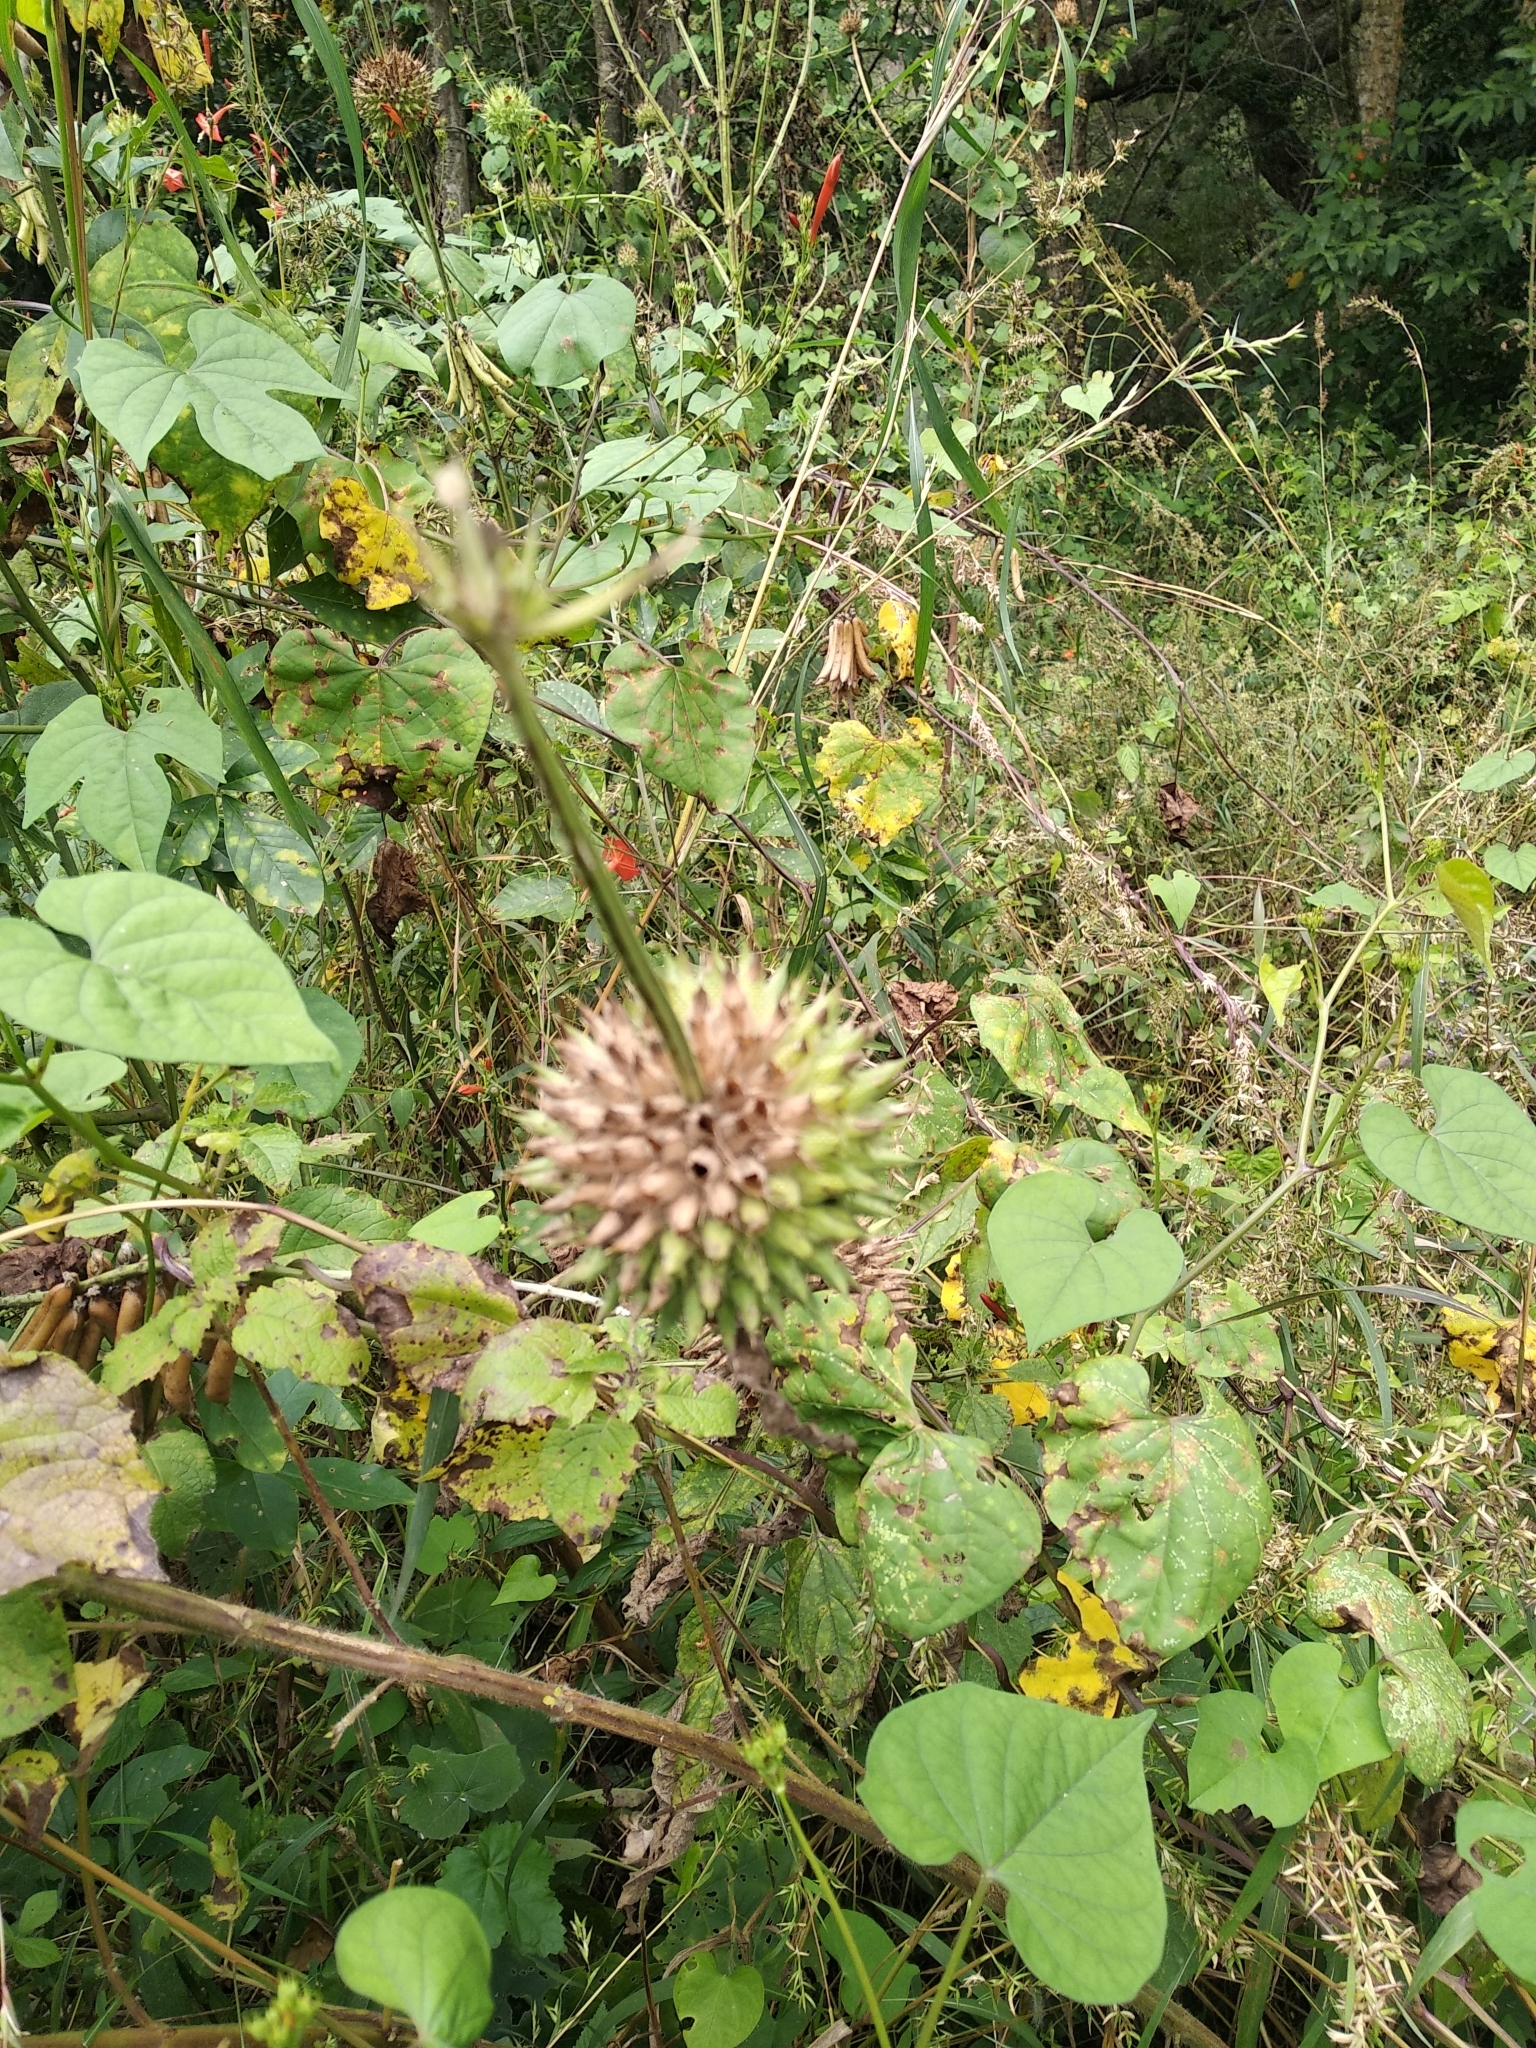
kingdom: Plantae
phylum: Tracheophyta
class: Magnoliopsida
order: Lamiales
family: Lamiaceae
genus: Leonotis
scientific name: Leonotis nepetifolia
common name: Christmas candlestick
